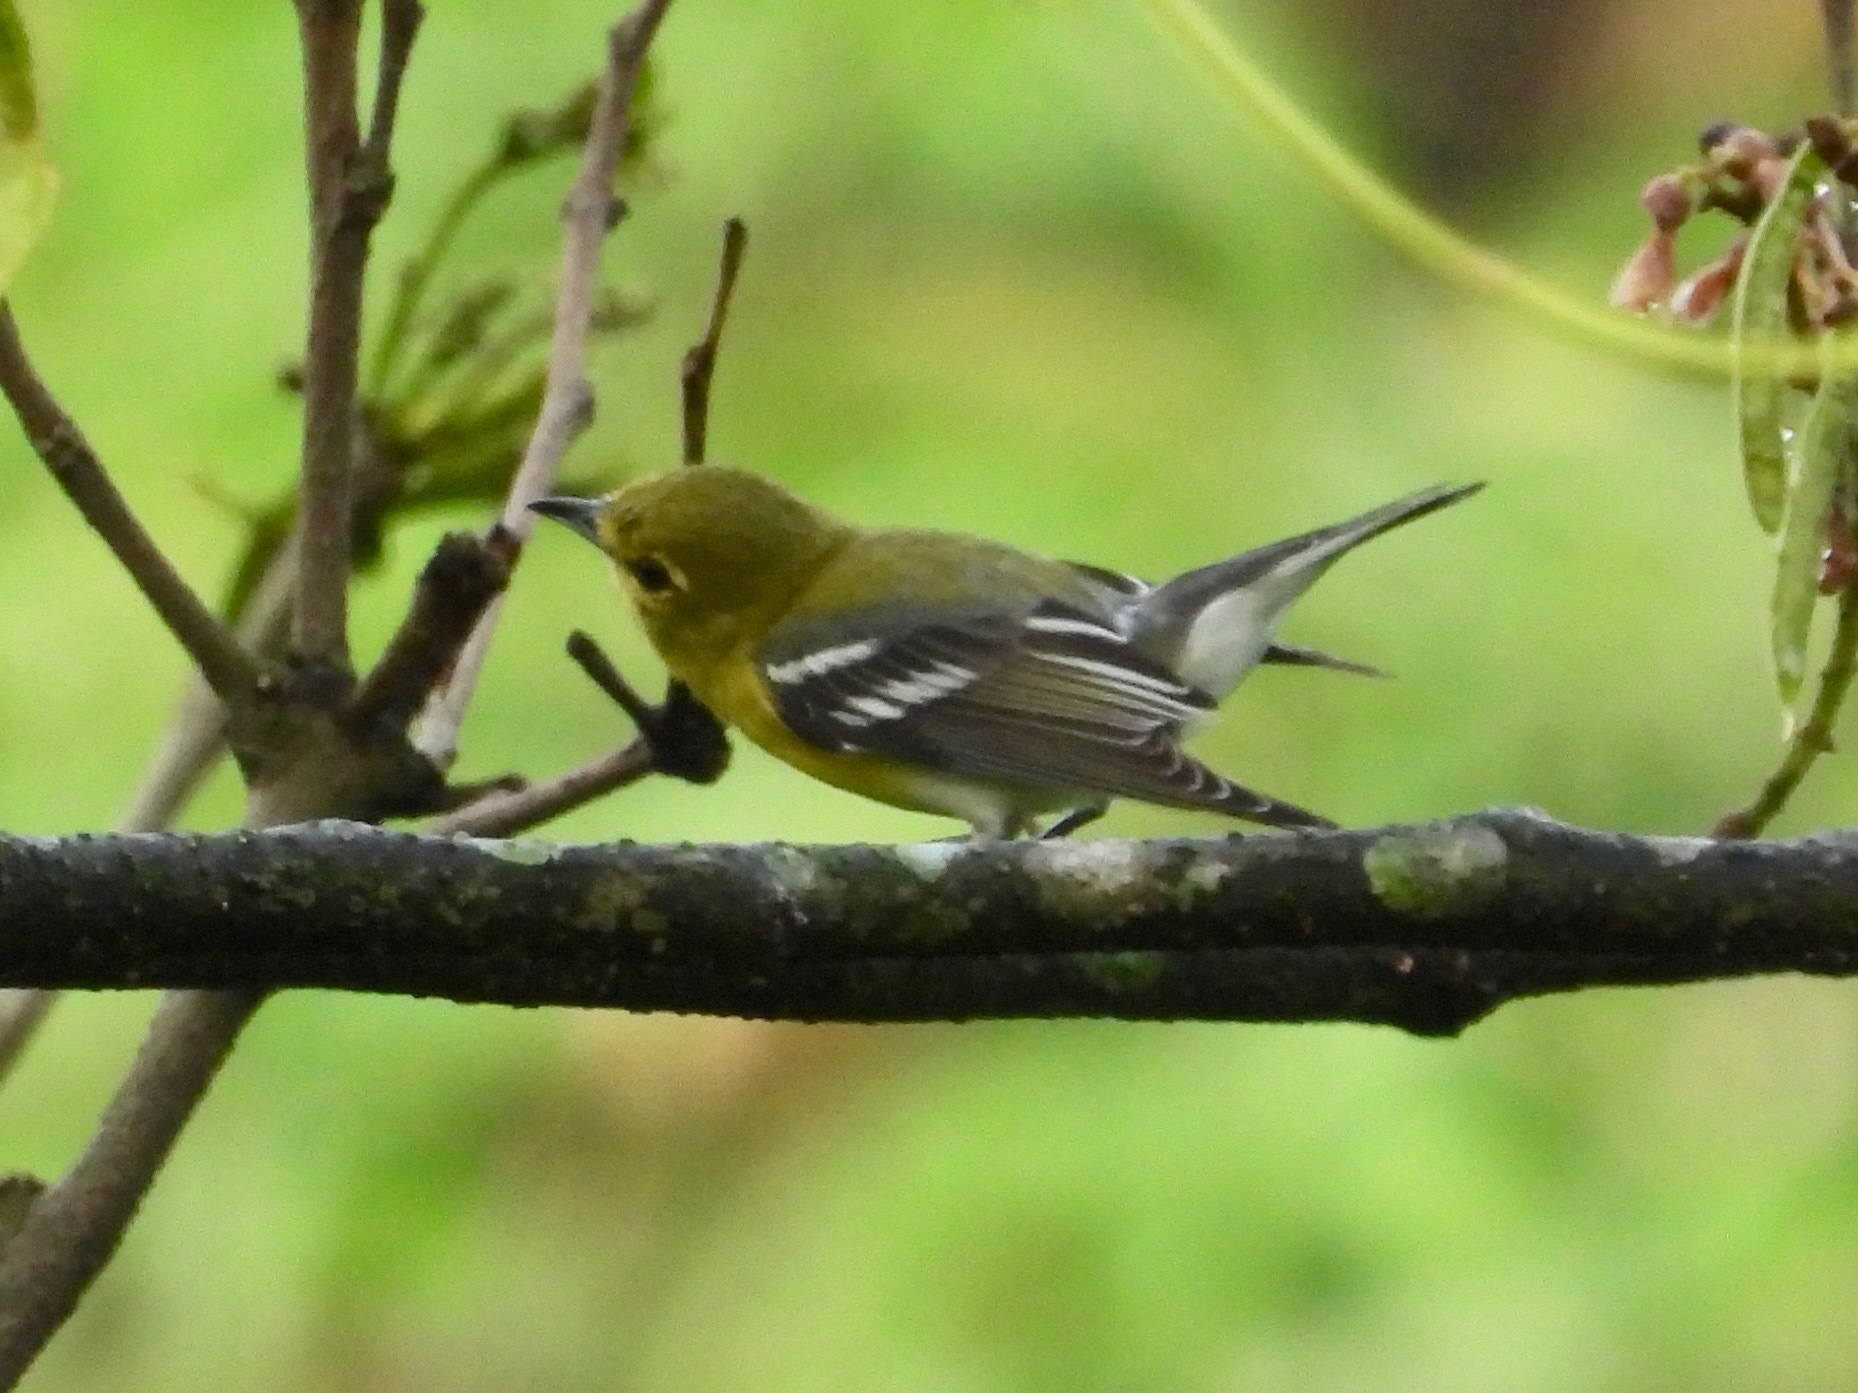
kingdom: Animalia
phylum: Chordata
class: Aves
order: Passeriformes
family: Vireonidae
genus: Vireo
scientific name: Vireo flavifrons
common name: Yellow-throated vireo
